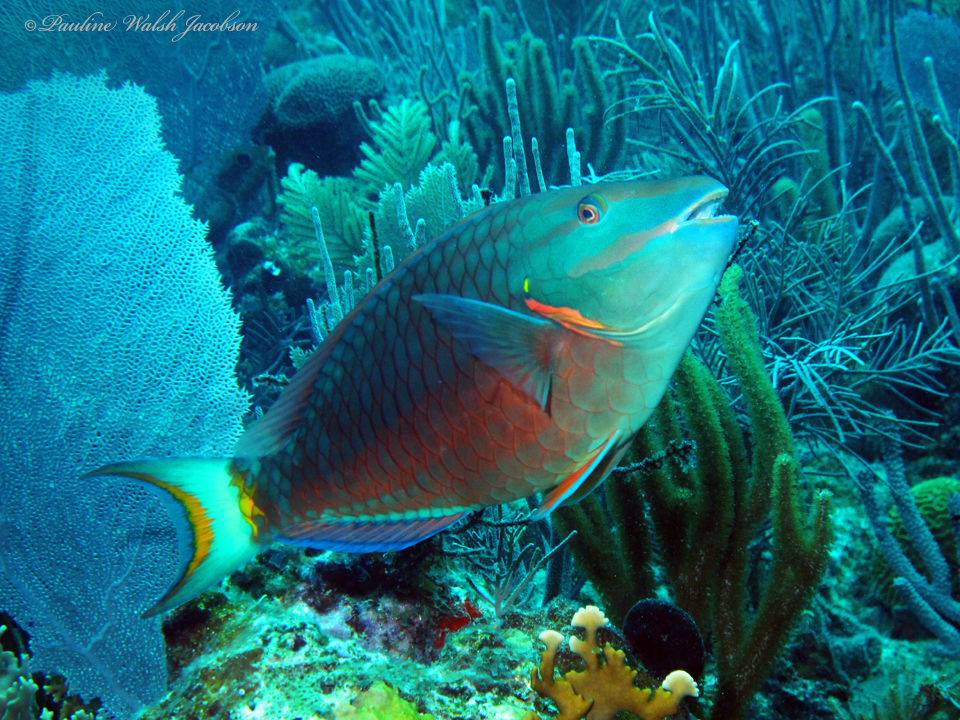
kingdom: Animalia
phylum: Chordata
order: Perciformes
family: Scaridae
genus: Sparisoma
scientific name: Sparisoma viride
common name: Stoplight parrotfish
